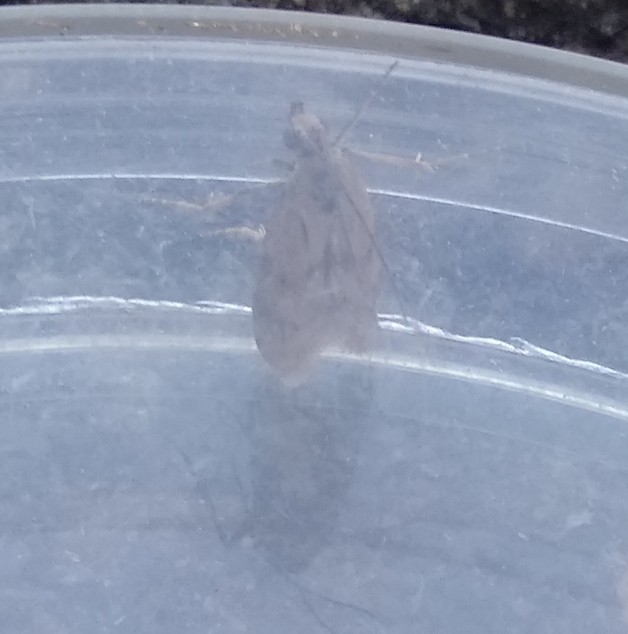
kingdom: Animalia
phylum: Arthropoda
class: Insecta
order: Lepidoptera
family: Pyralidae
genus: Homoeosoma
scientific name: Homoeosoma sinuella
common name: Twin-barred knot-horn
